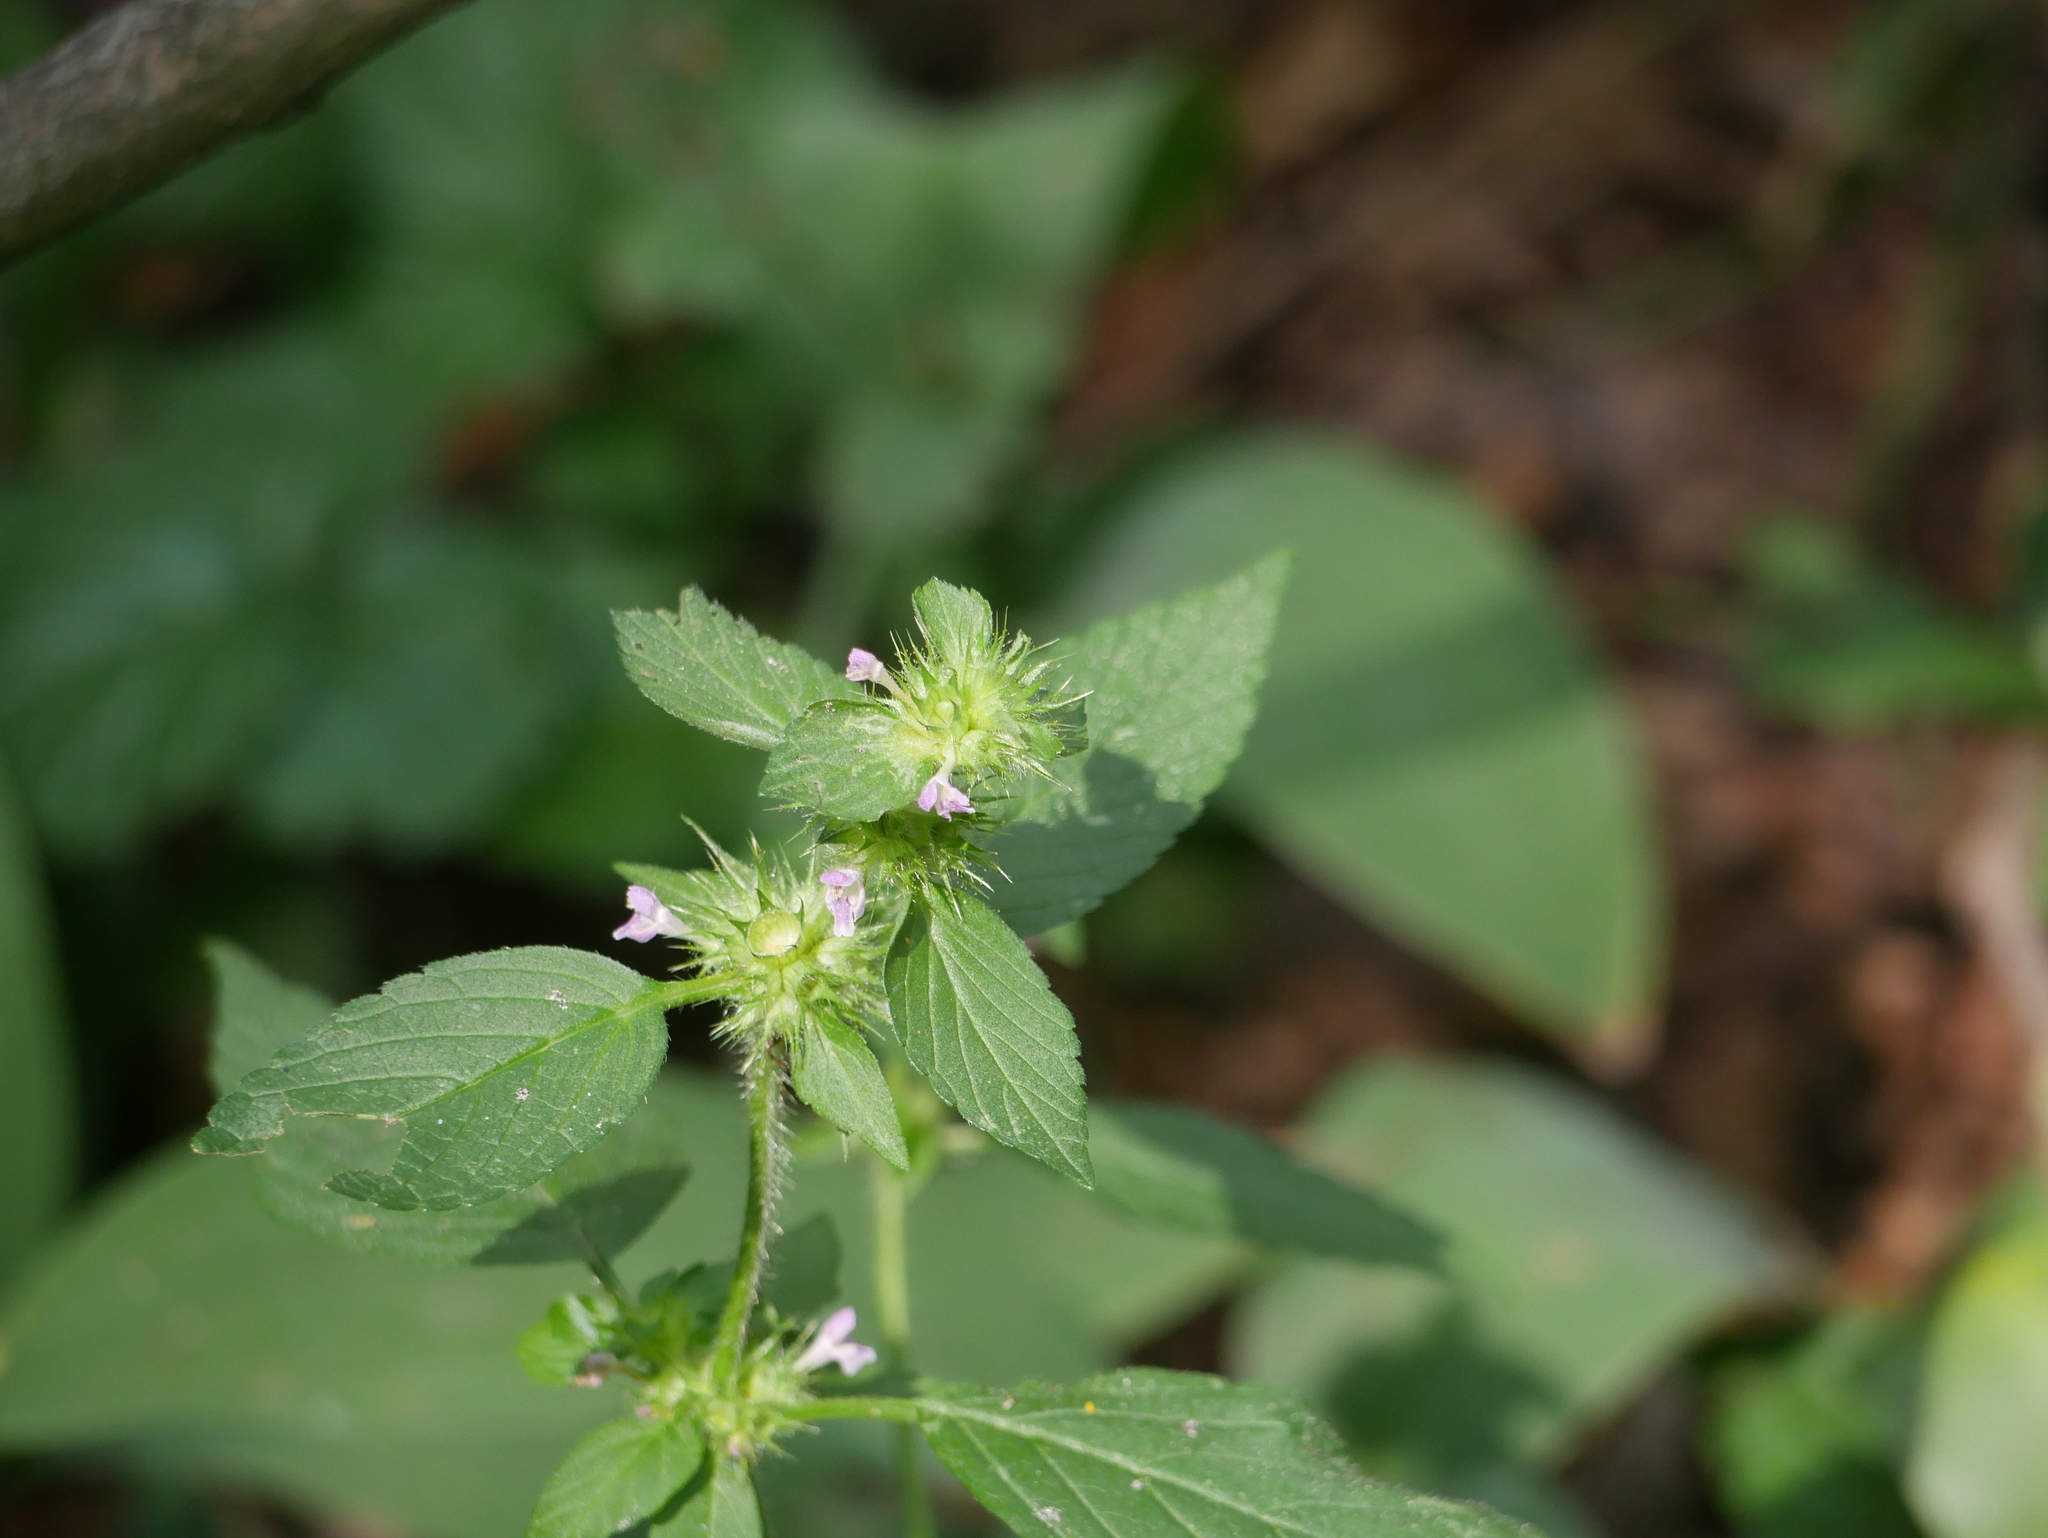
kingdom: Plantae
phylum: Tracheophyta
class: Magnoliopsida
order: Lamiales
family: Lamiaceae
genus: Galeopsis
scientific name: Galeopsis bifida
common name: Bifid hemp-nettle
